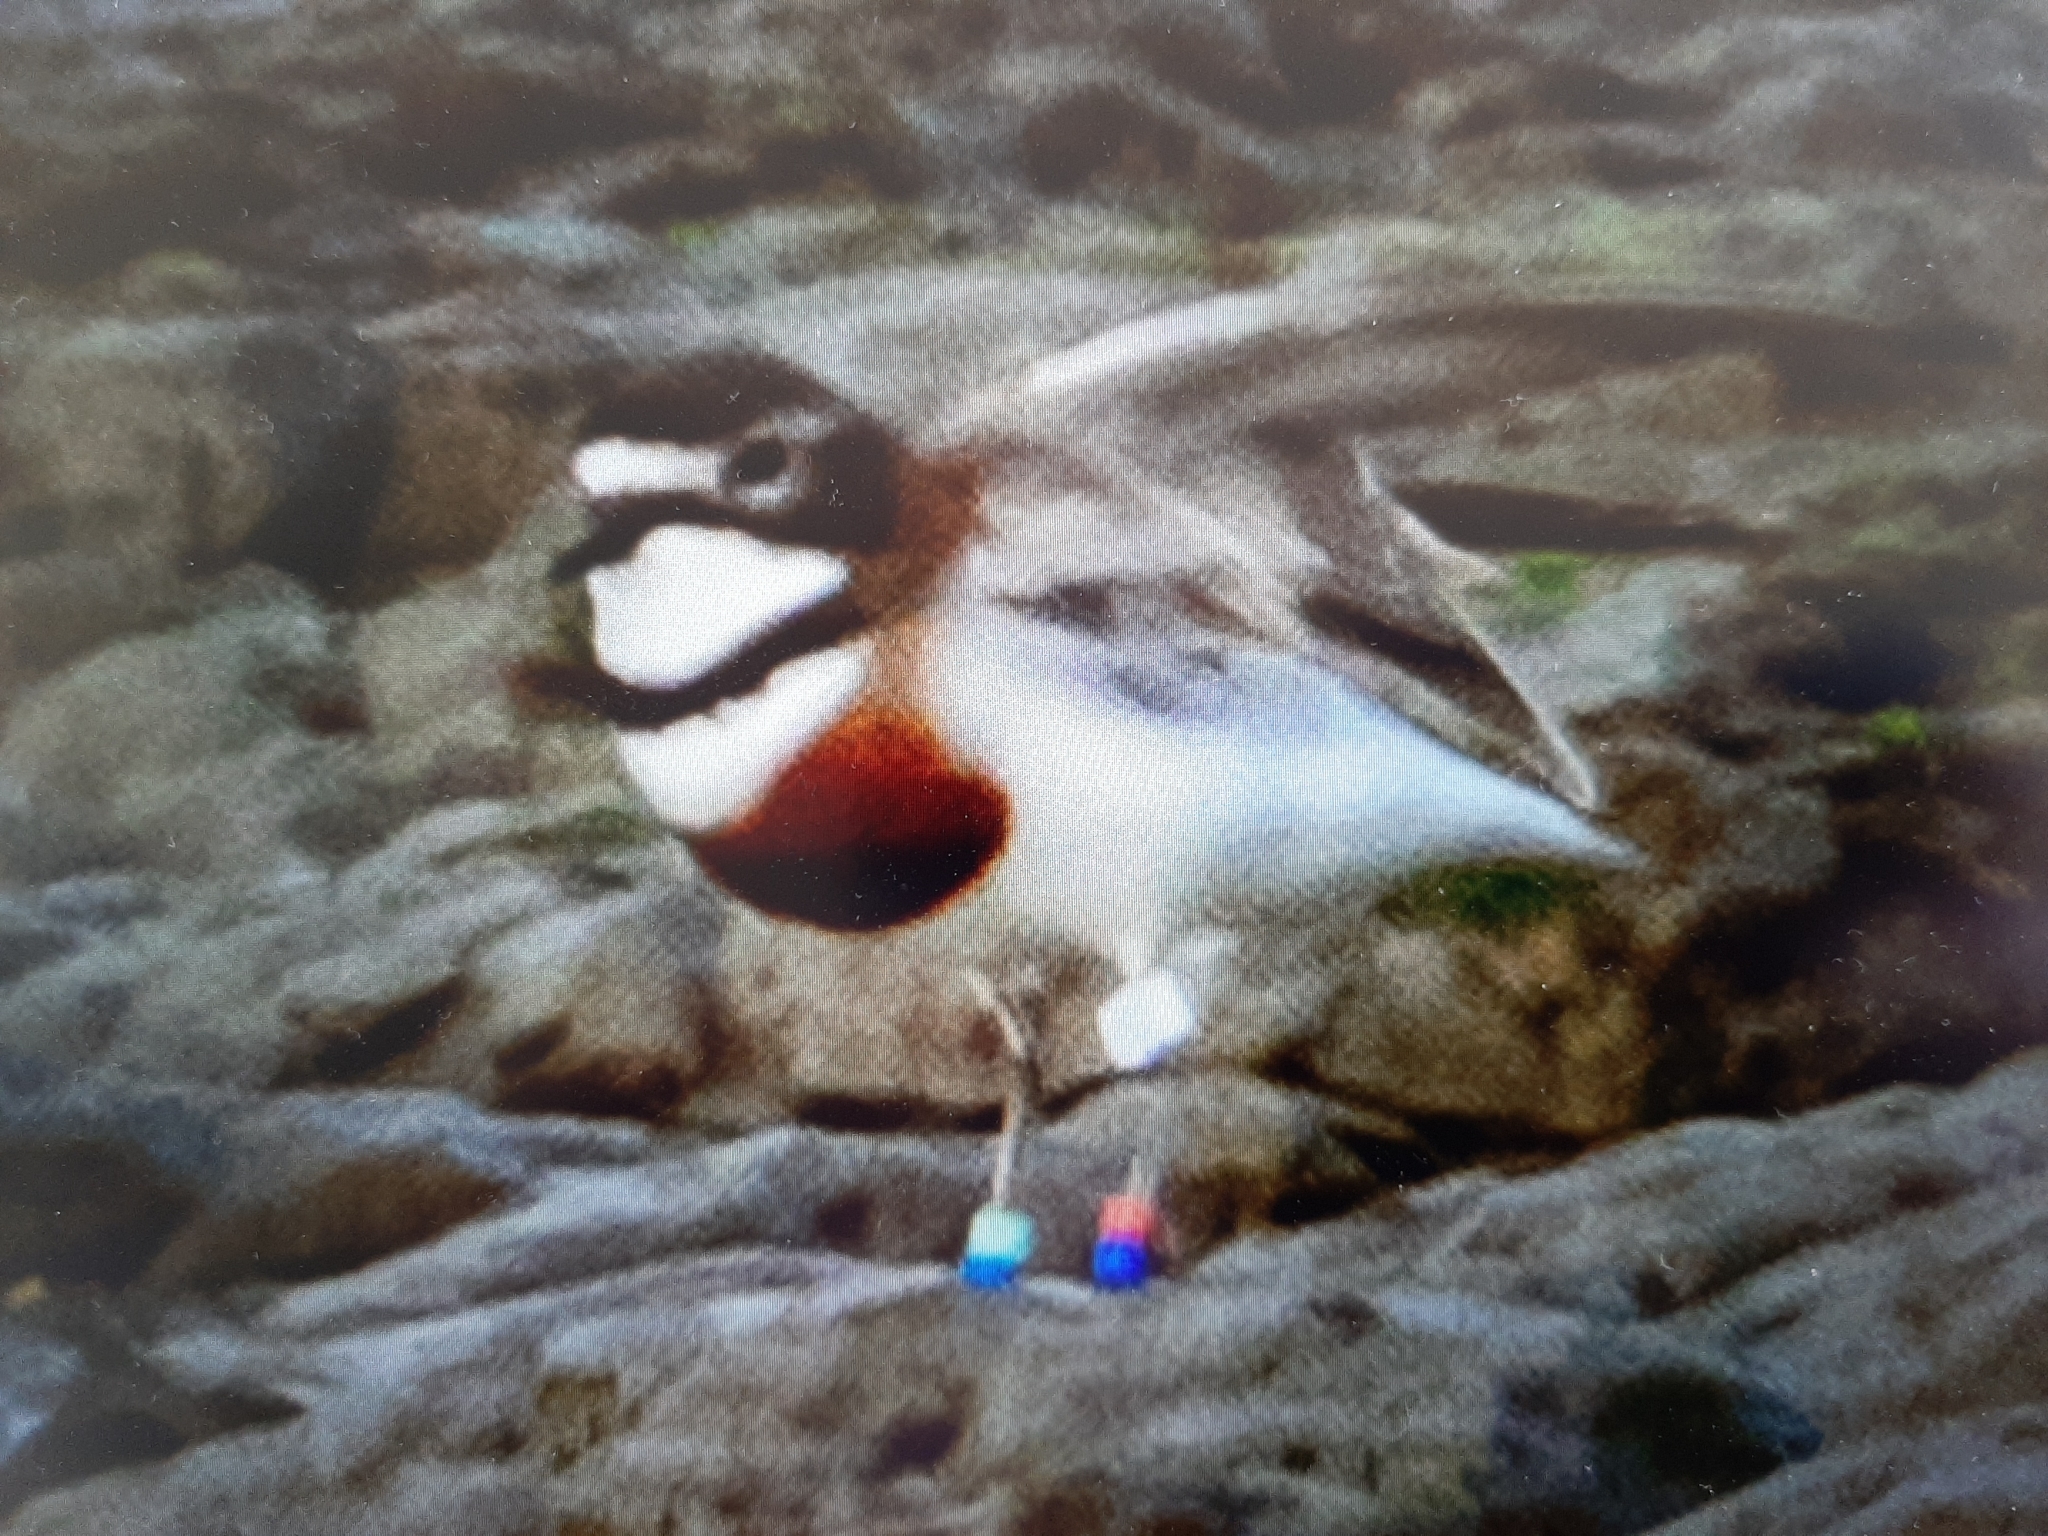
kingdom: Animalia
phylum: Chordata
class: Aves
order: Charadriiformes
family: Charadriidae
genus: Anarhynchus
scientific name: Anarhynchus
